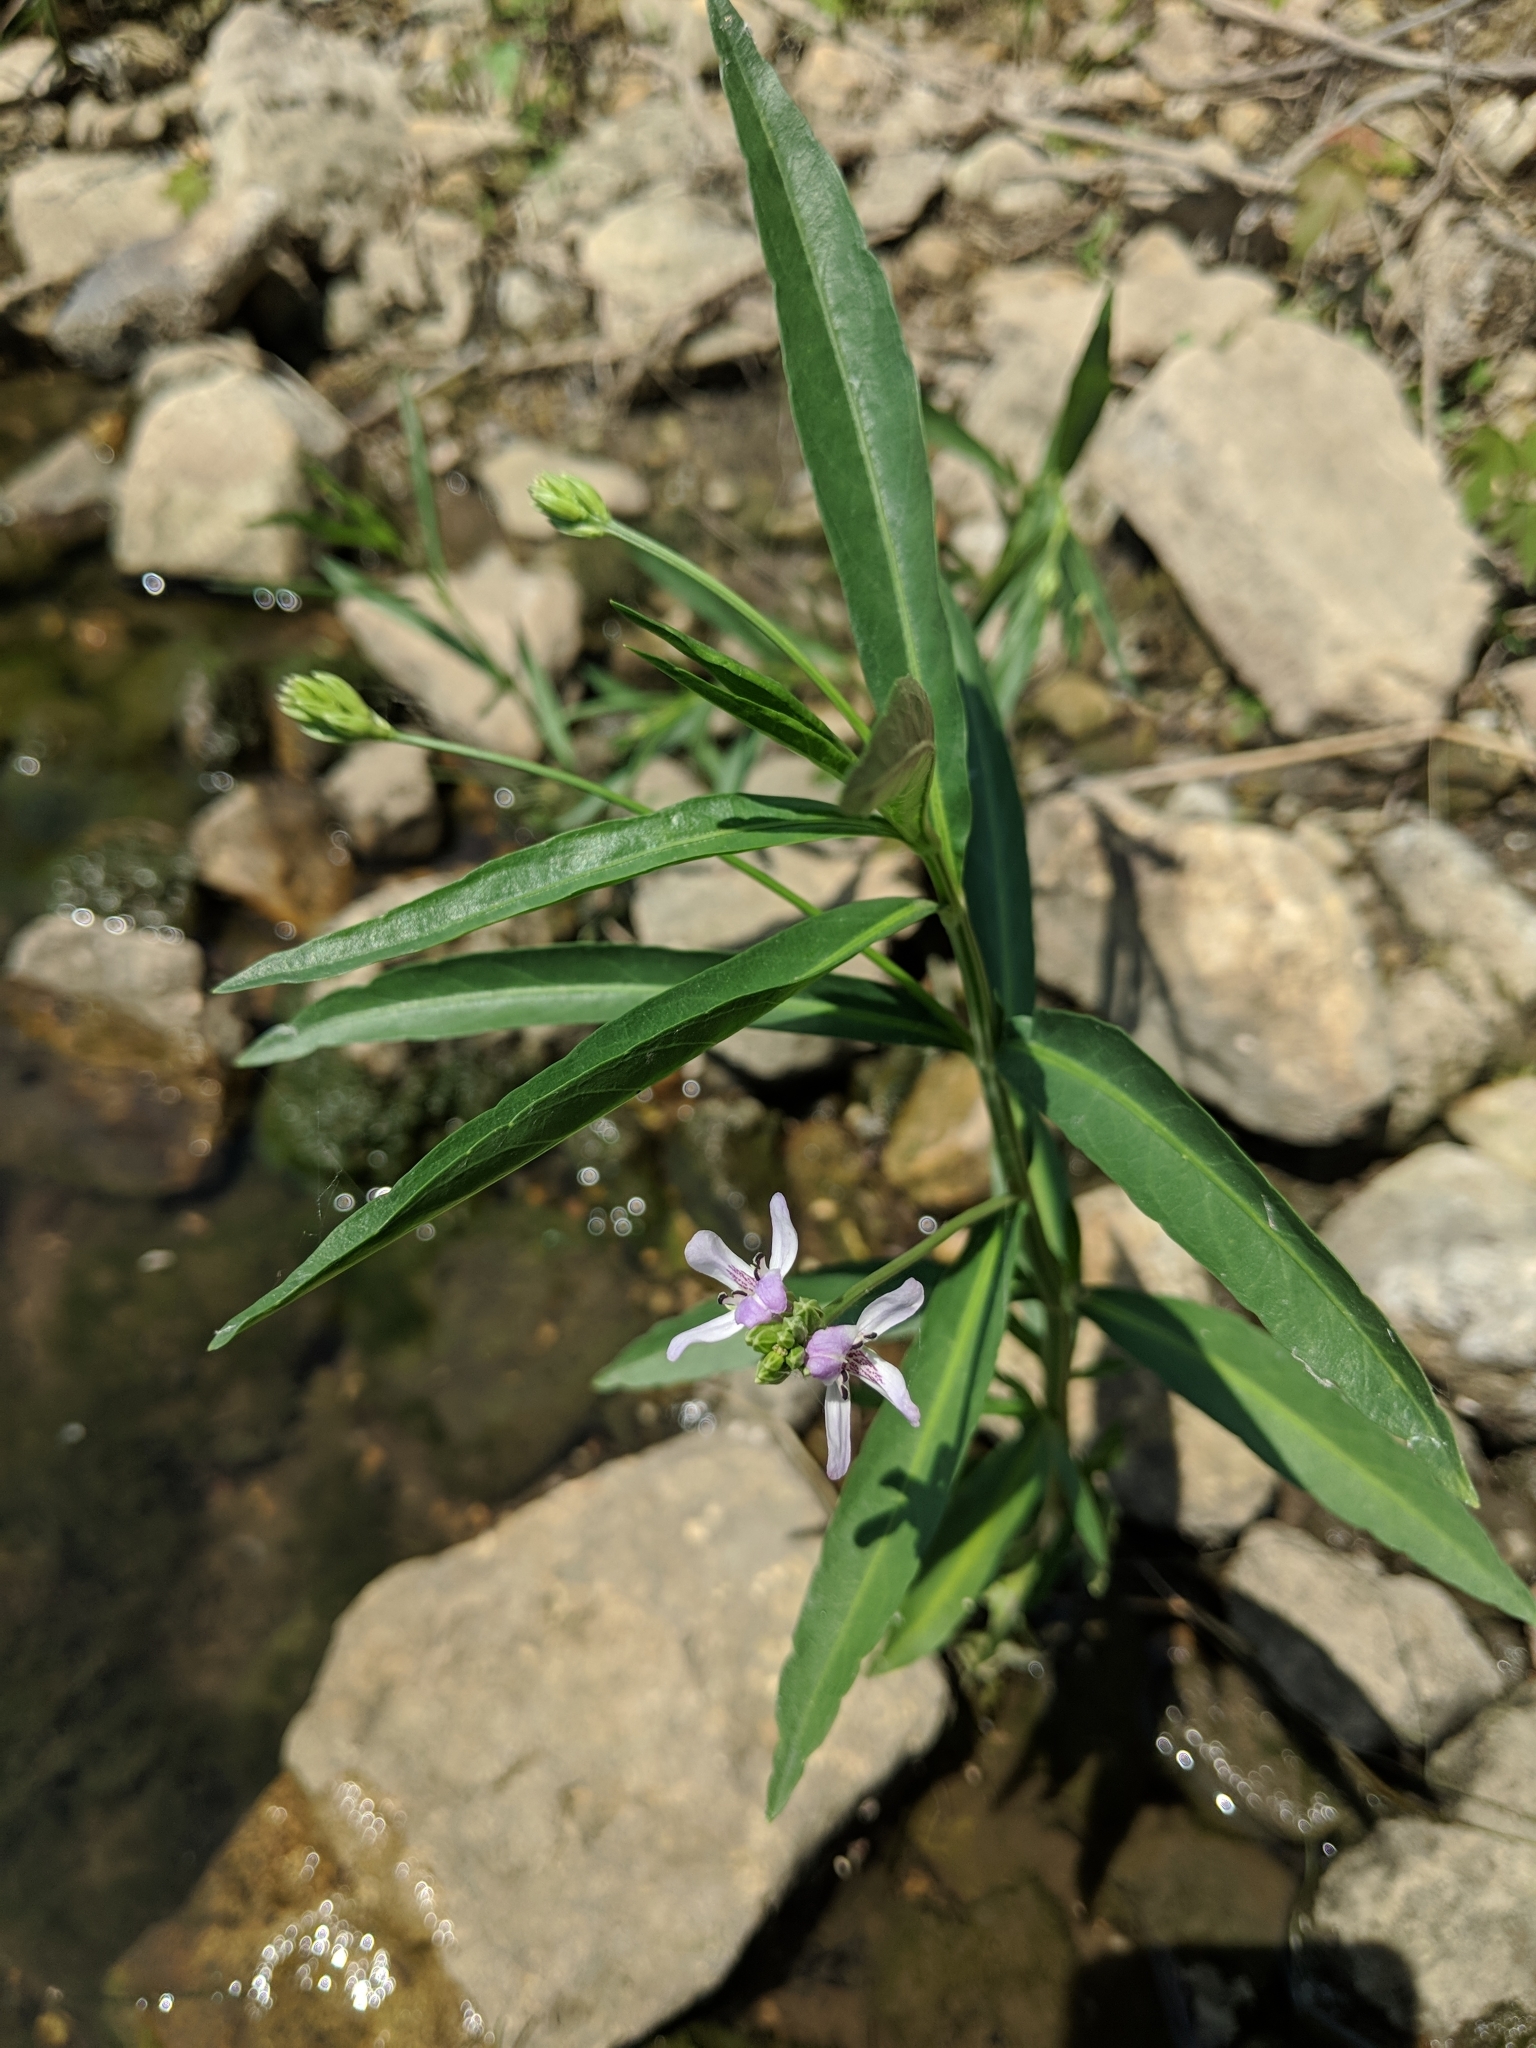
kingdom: Plantae
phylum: Tracheophyta
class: Magnoliopsida
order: Lamiales
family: Acanthaceae
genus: Dianthera
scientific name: Dianthera americana
